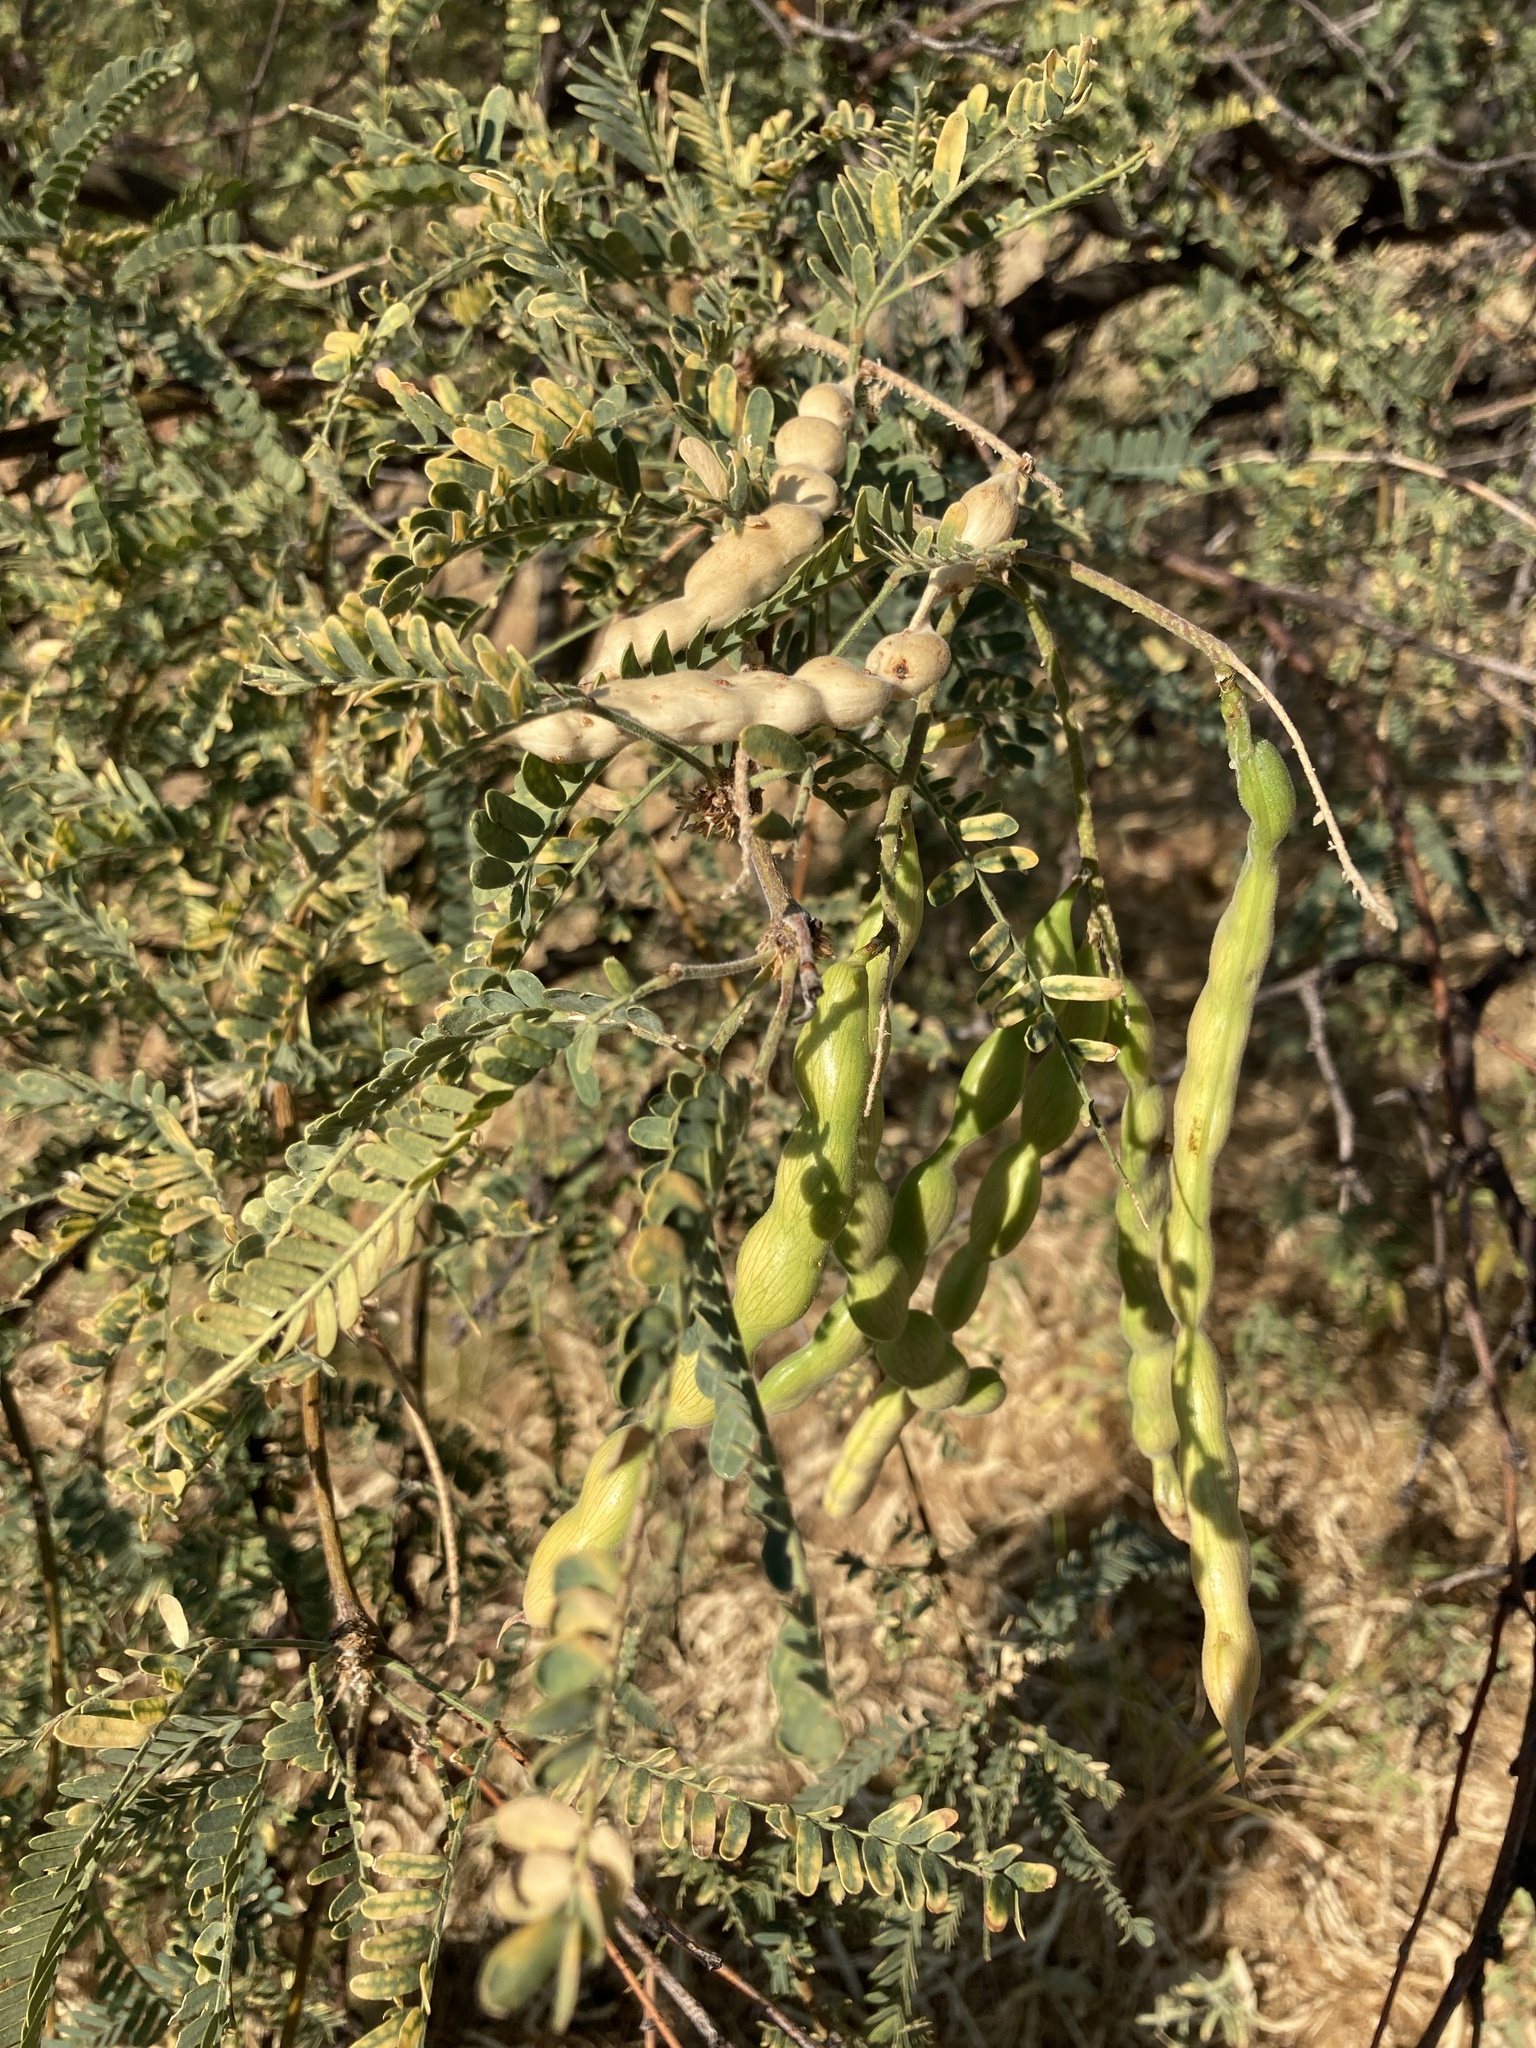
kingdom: Plantae
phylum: Tracheophyta
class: Magnoliopsida
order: Fabales
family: Fabaceae
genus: Prosopis
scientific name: Prosopis velutina
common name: Velvet mesquite
